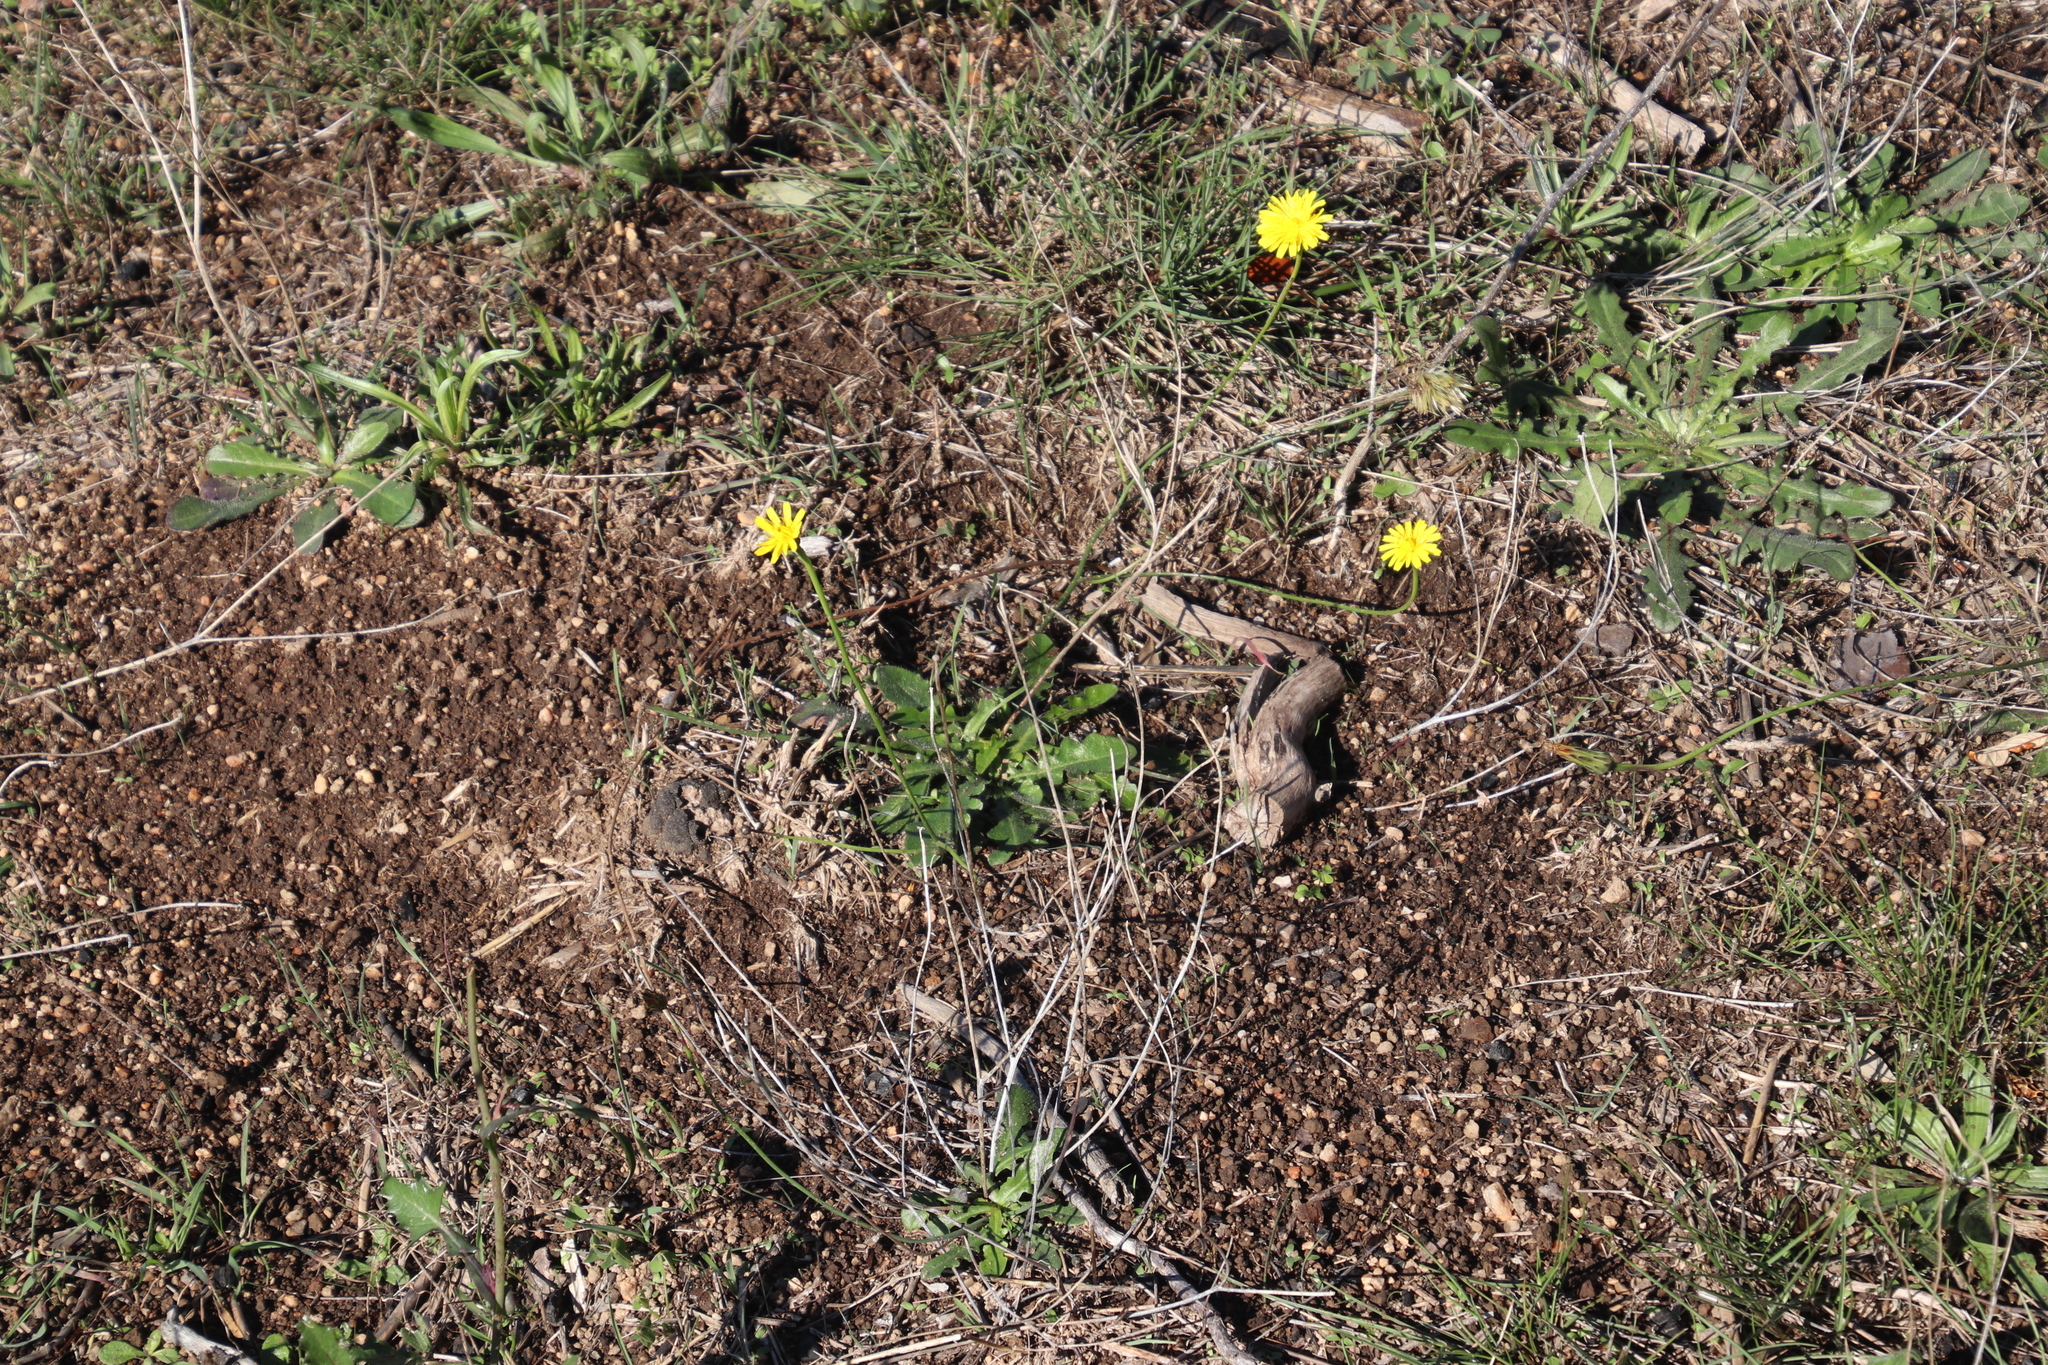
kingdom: Plantae
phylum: Tracheophyta
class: Magnoliopsida
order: Asterales
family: Asteraceae
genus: Hypochaeris
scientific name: Hypochaeris radicata
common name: Flatweed
